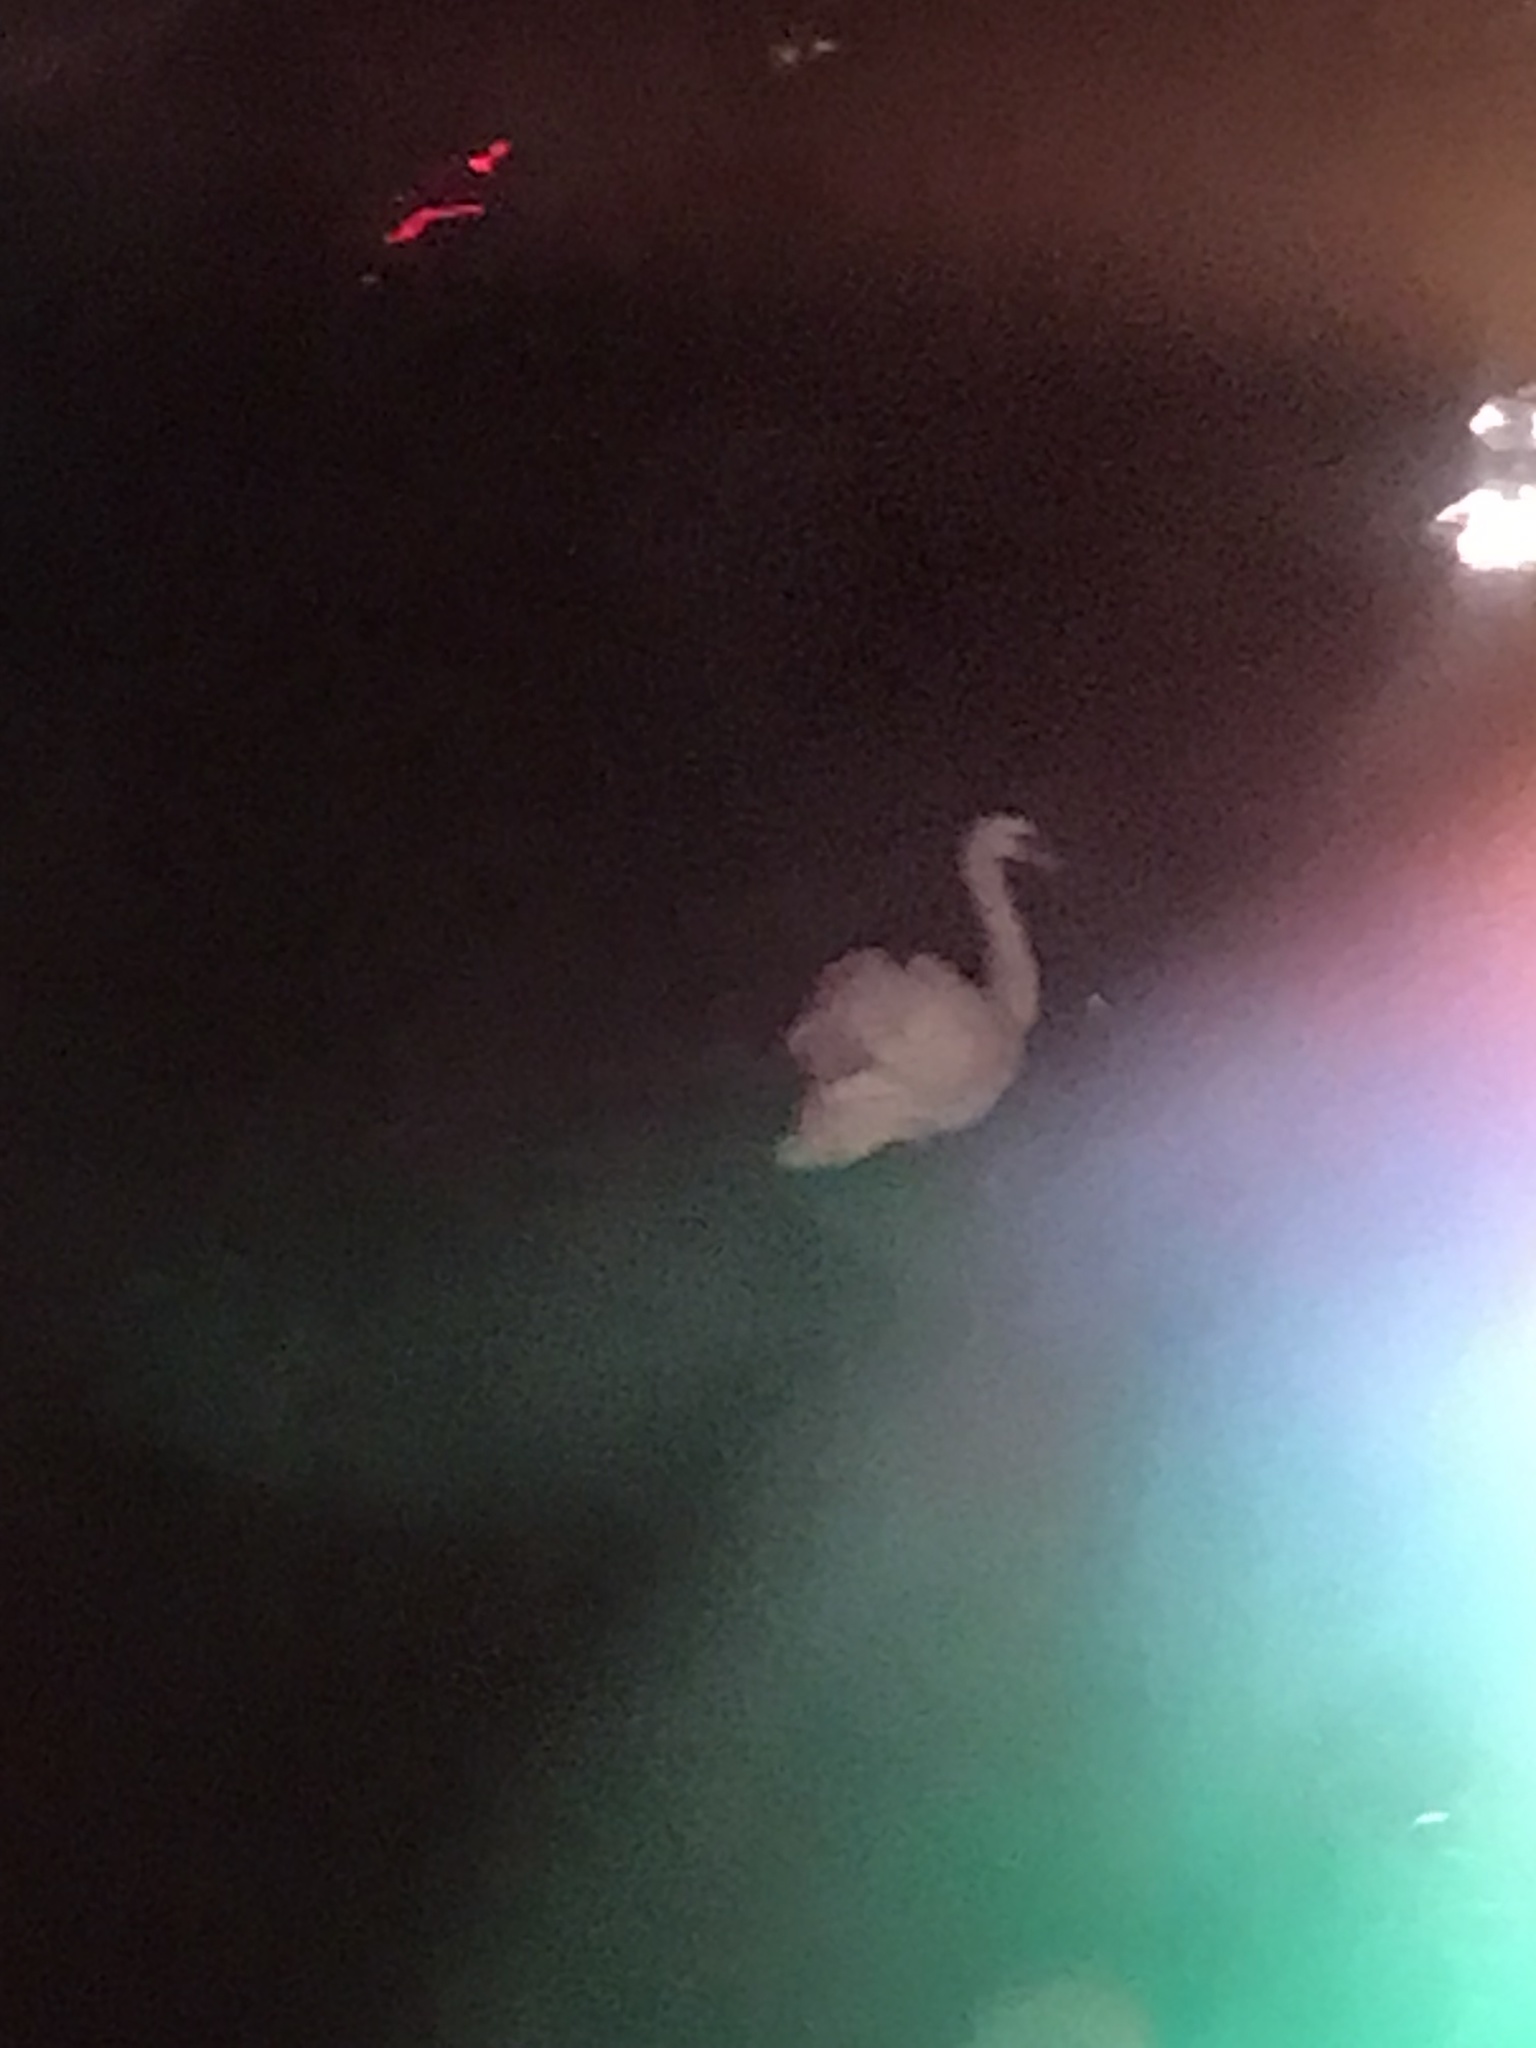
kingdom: Animalia
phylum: Chordata
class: Aves
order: Anseriformes
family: Anatidae
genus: Cygnus
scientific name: Cygnus olor
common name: Mute swan
